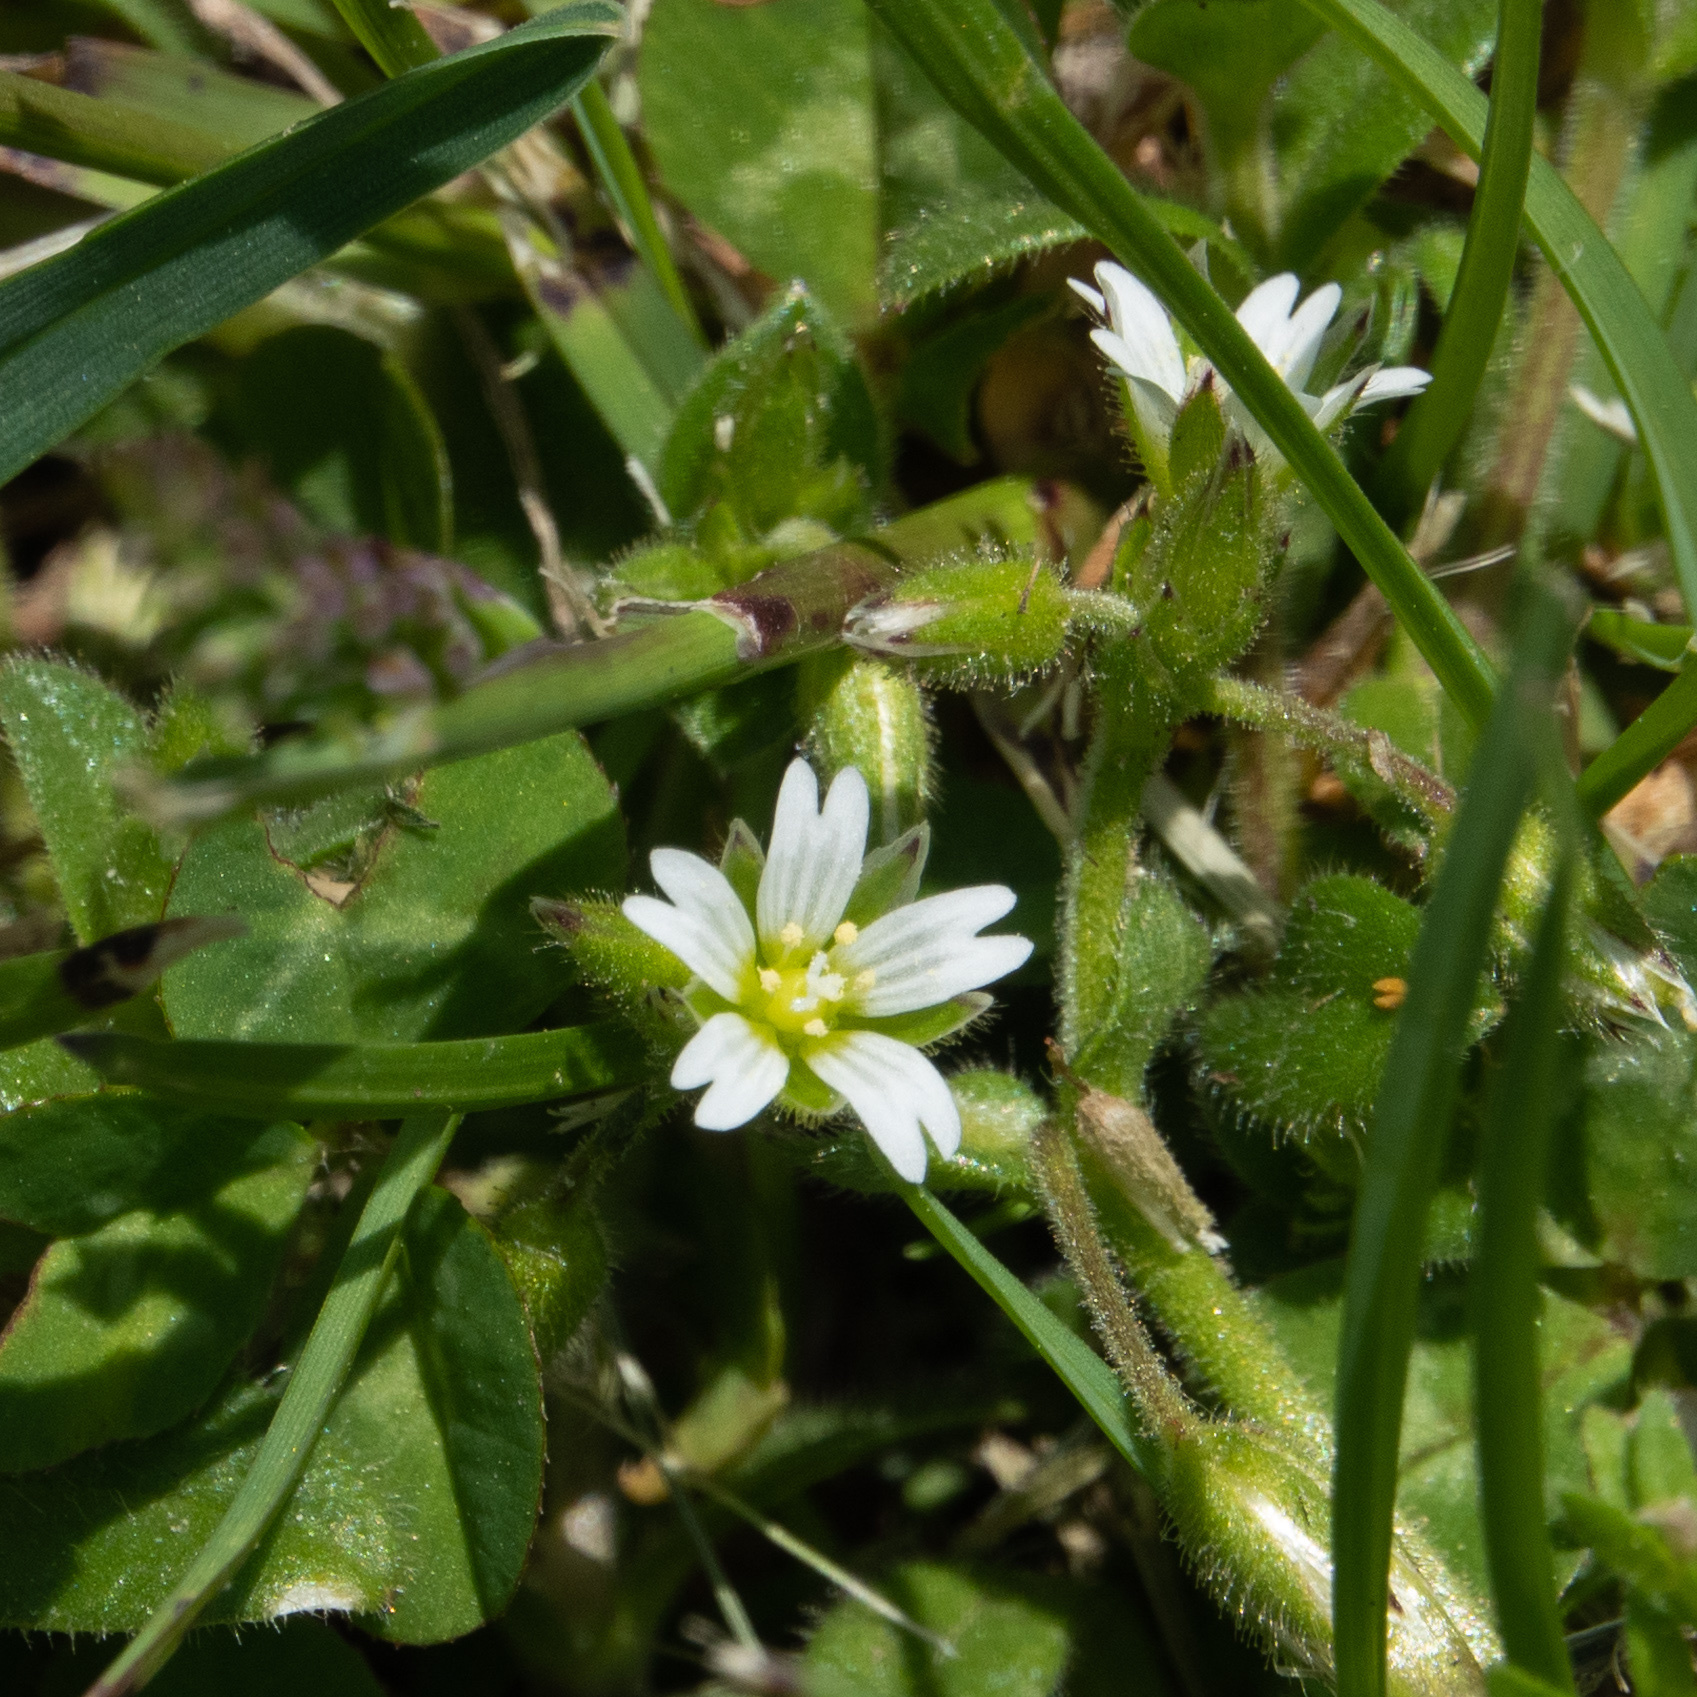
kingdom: Plantae
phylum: Tracheophyta
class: Magnoliopsida
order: Caryophyllales
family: Caryophyllaceae
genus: Cerastium
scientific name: Cerastium glomeratum
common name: Sticky chickweed
